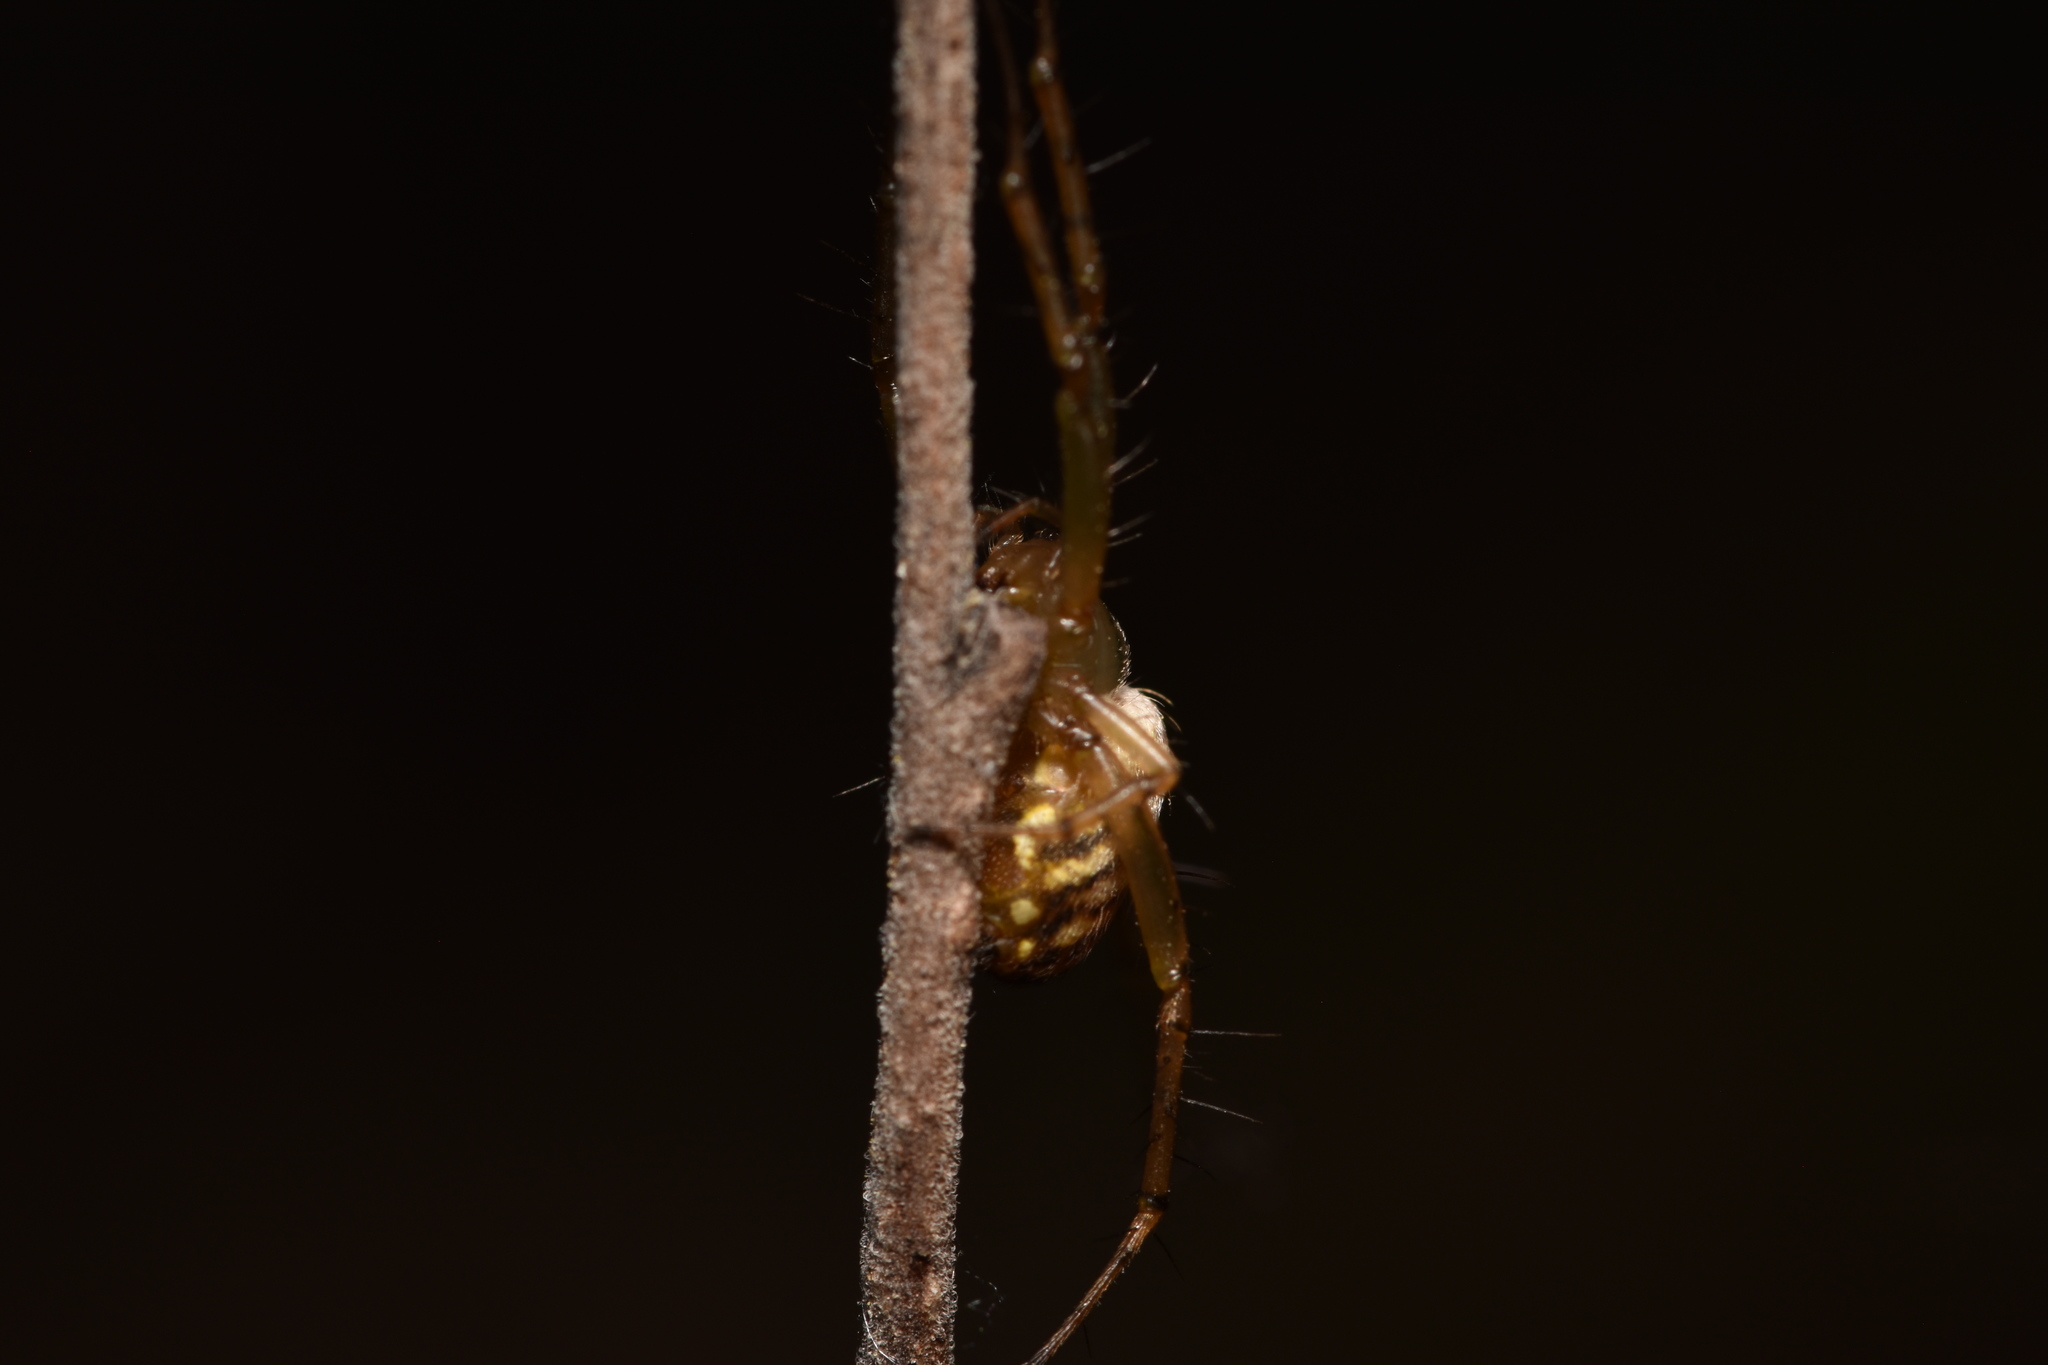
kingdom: Animalia
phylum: Arthropoda
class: Arachnida
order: Araneae
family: Araneidae
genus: Mangora
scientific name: Mangora gibberosa
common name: Lined orbweaver
